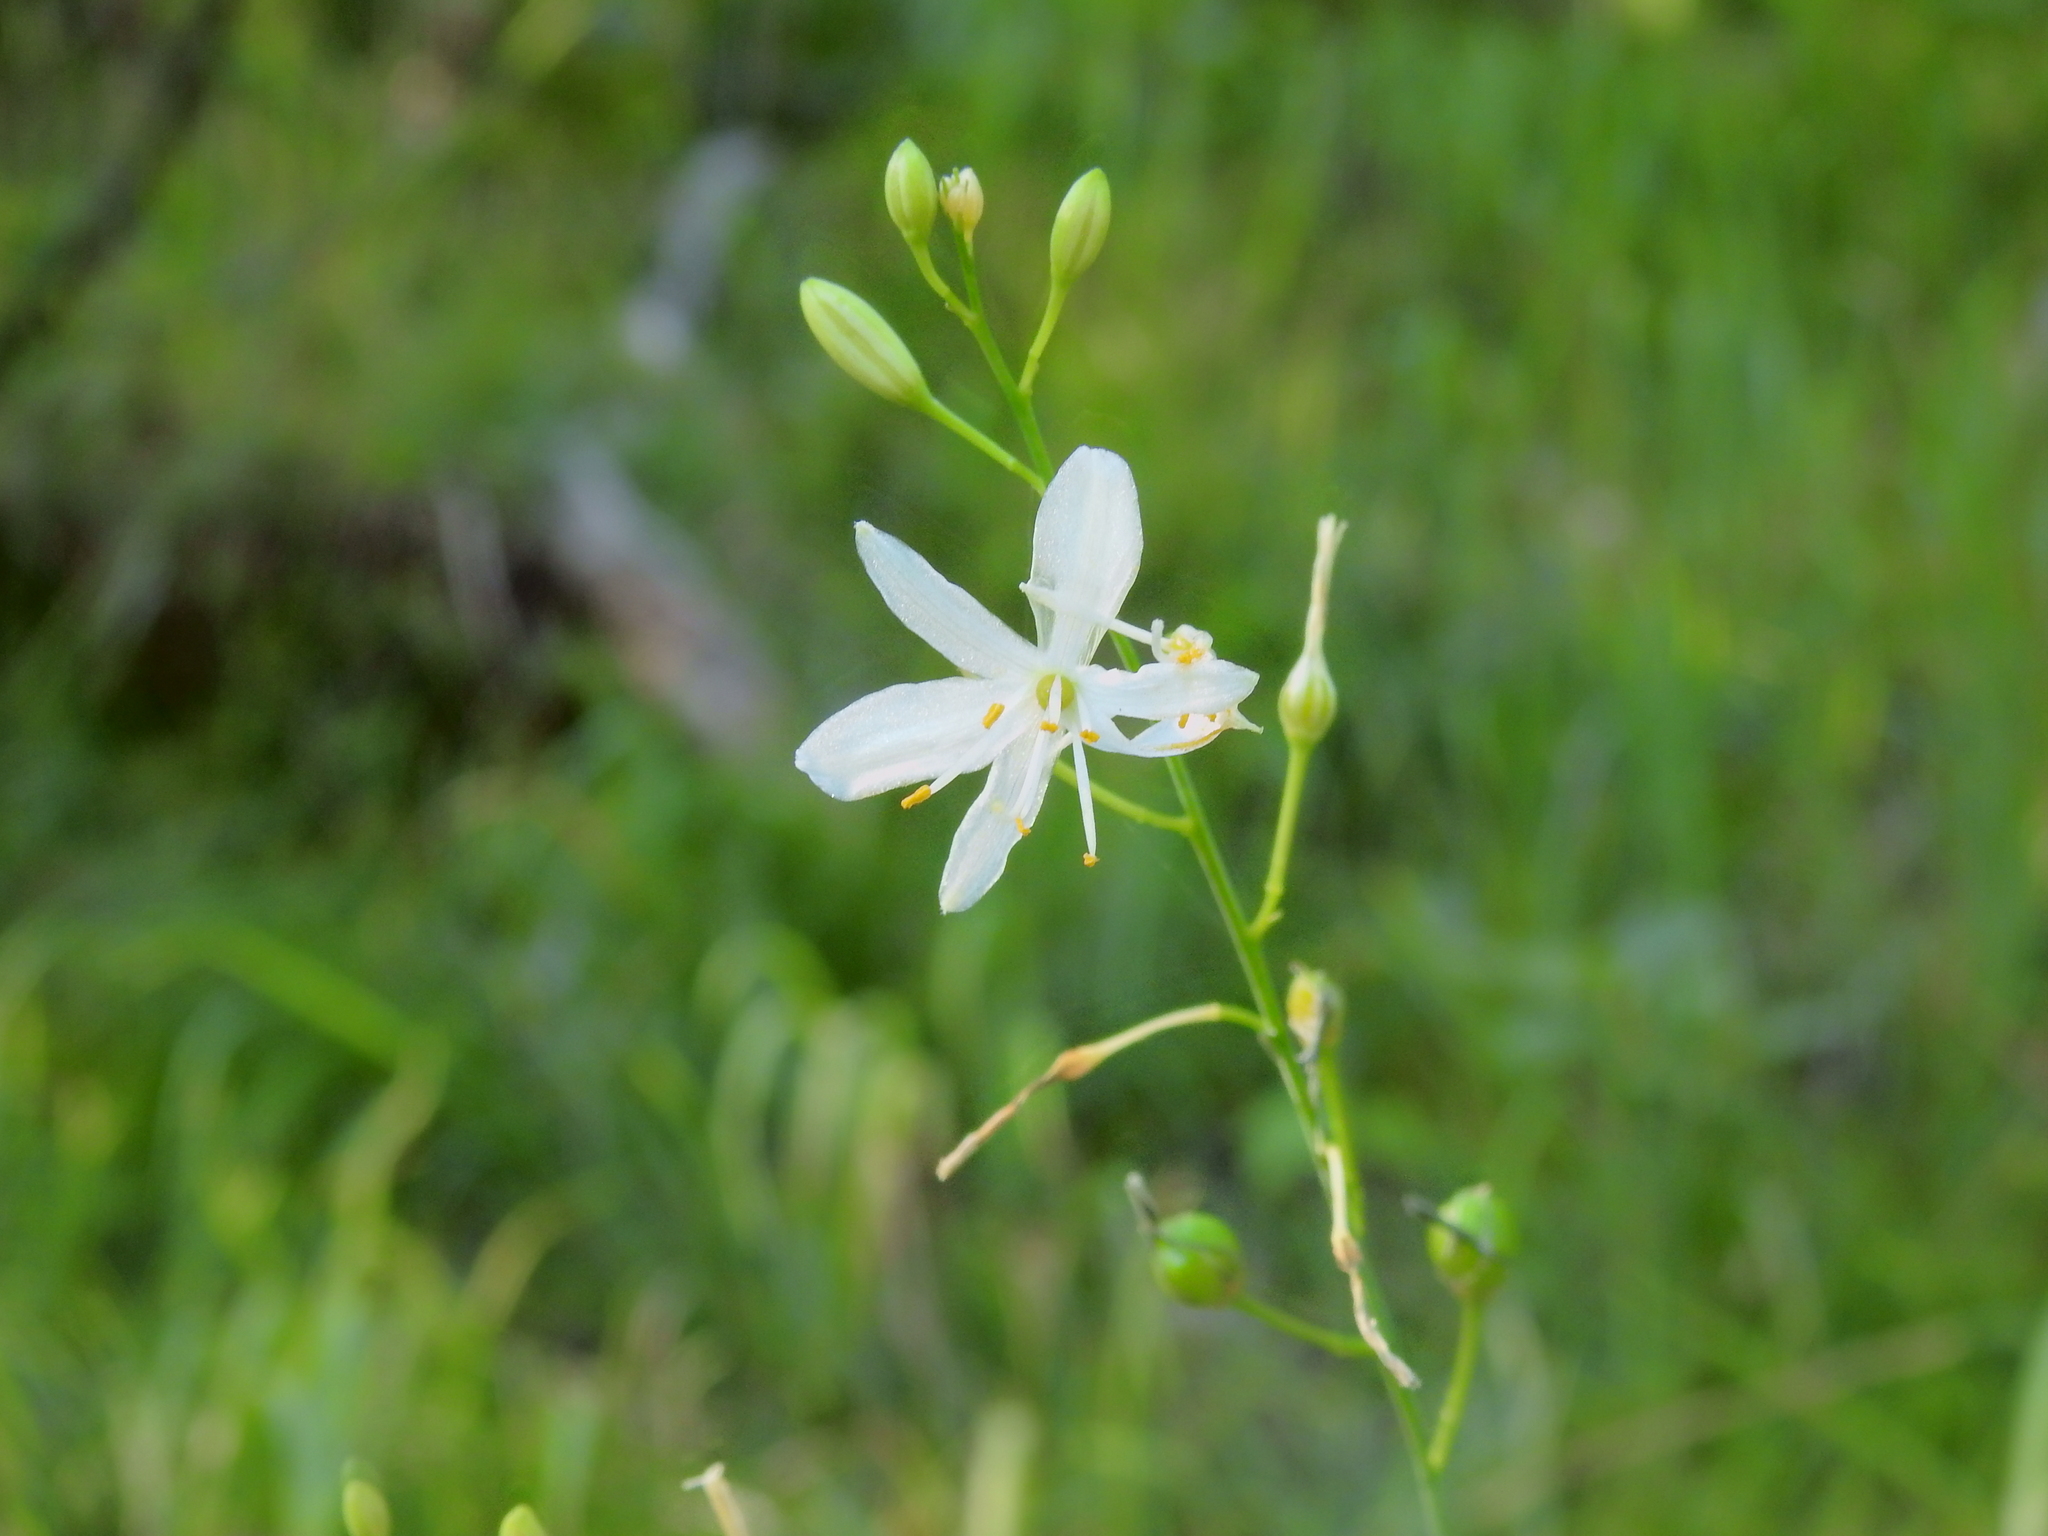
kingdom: Plantae
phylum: Tracheophyta
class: Liliopsida
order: Asparagales
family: Asparagaceae
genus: Anthericum
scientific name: Anthericum ramosum
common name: Branched st. bernard's-lily
